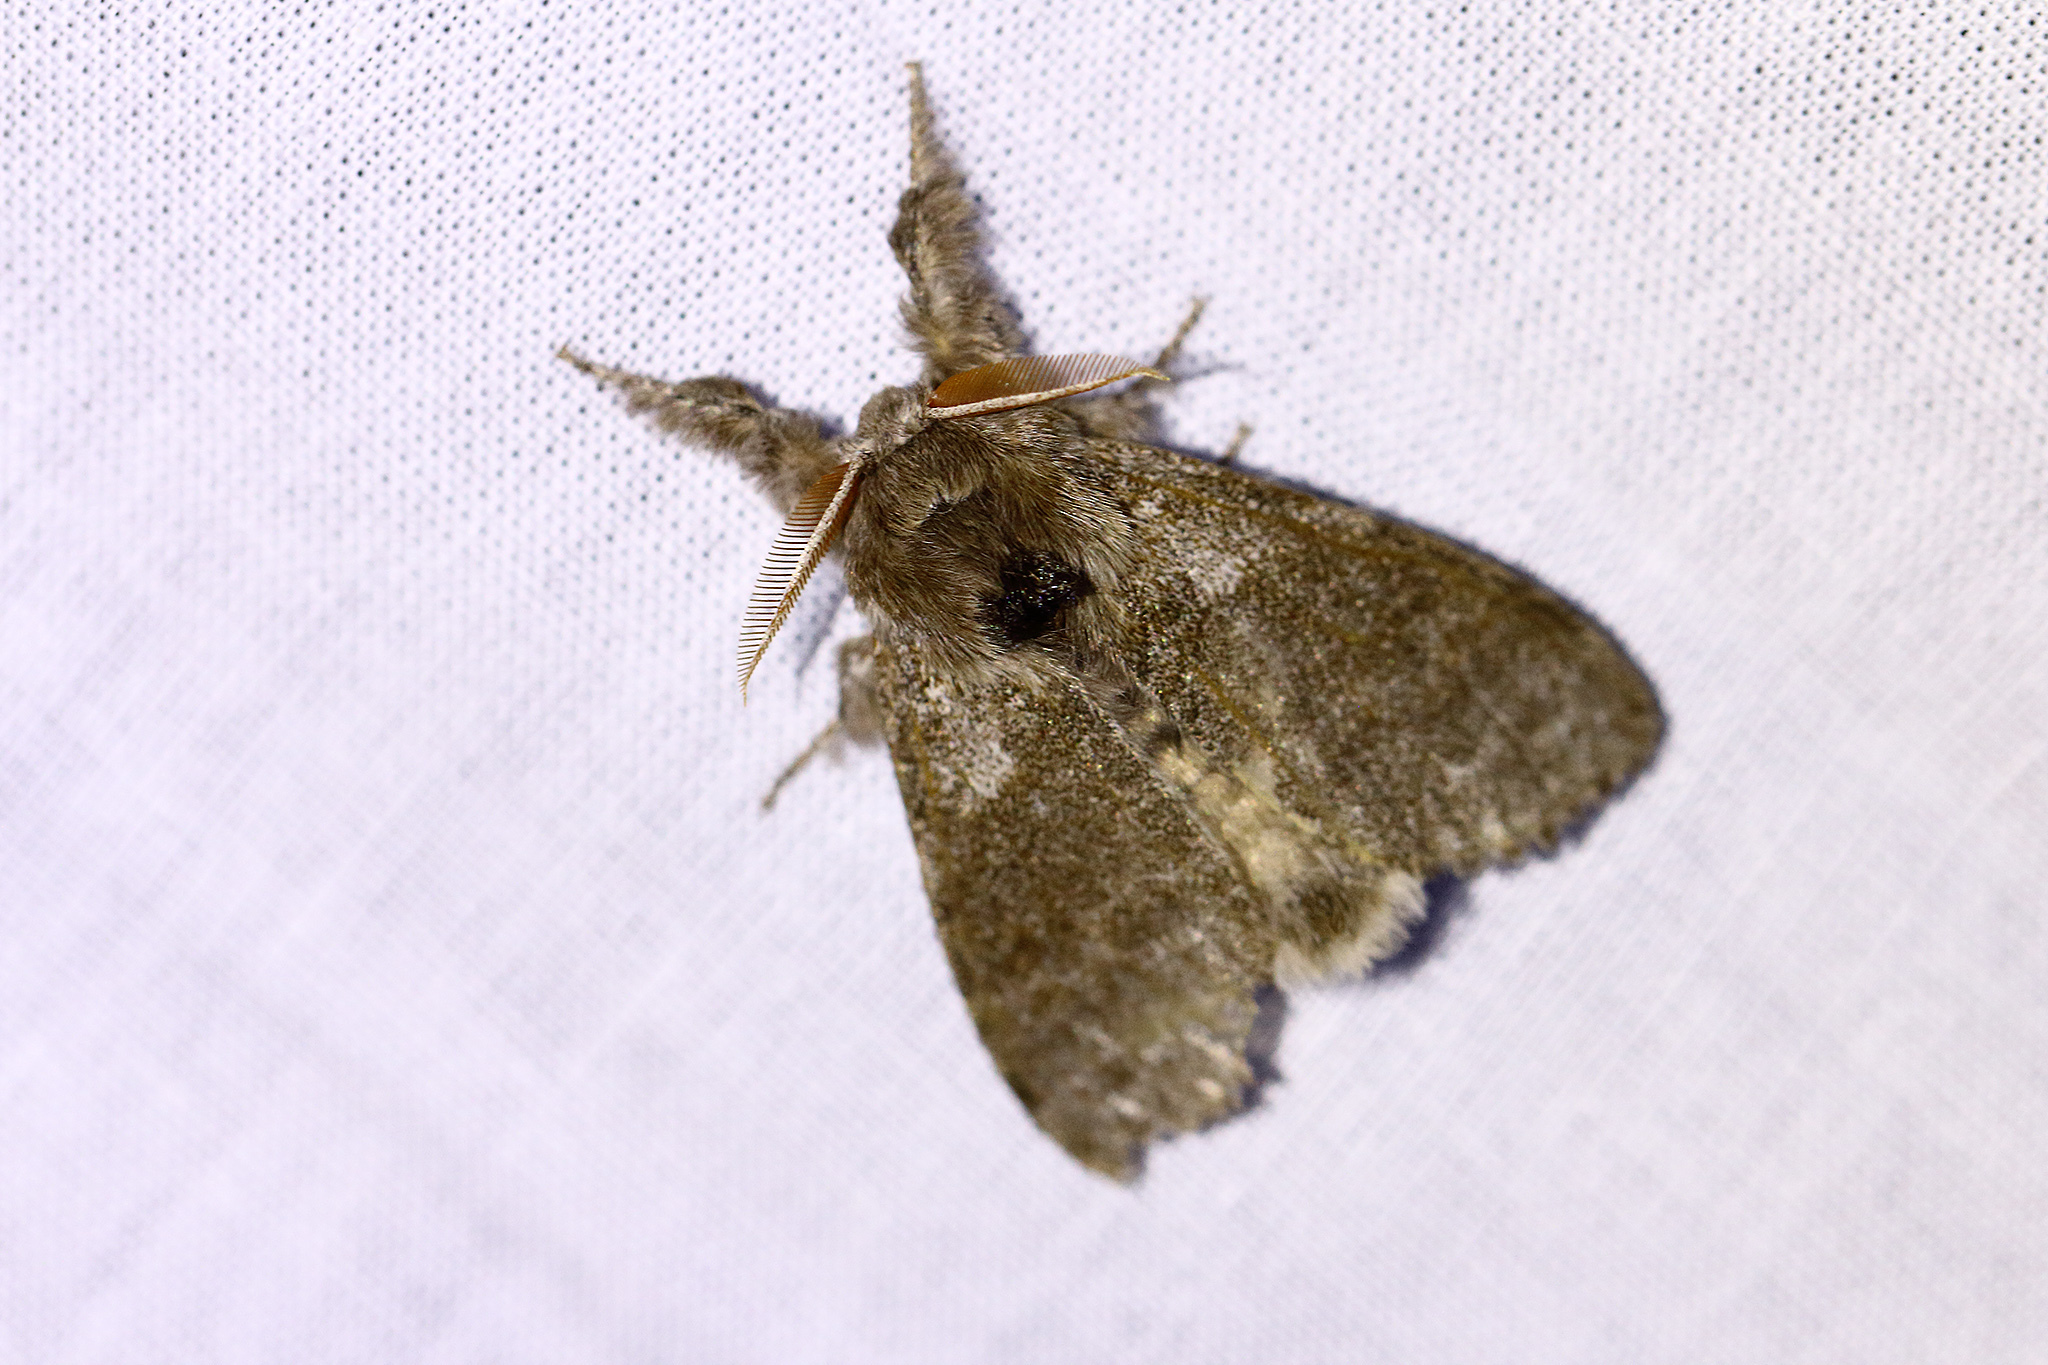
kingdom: Animalia
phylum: Arthropoda
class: Insecta
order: Lepidoptera
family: Erebidae
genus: Calliteara
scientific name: Calliteara pudibunda
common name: Pale tussock
